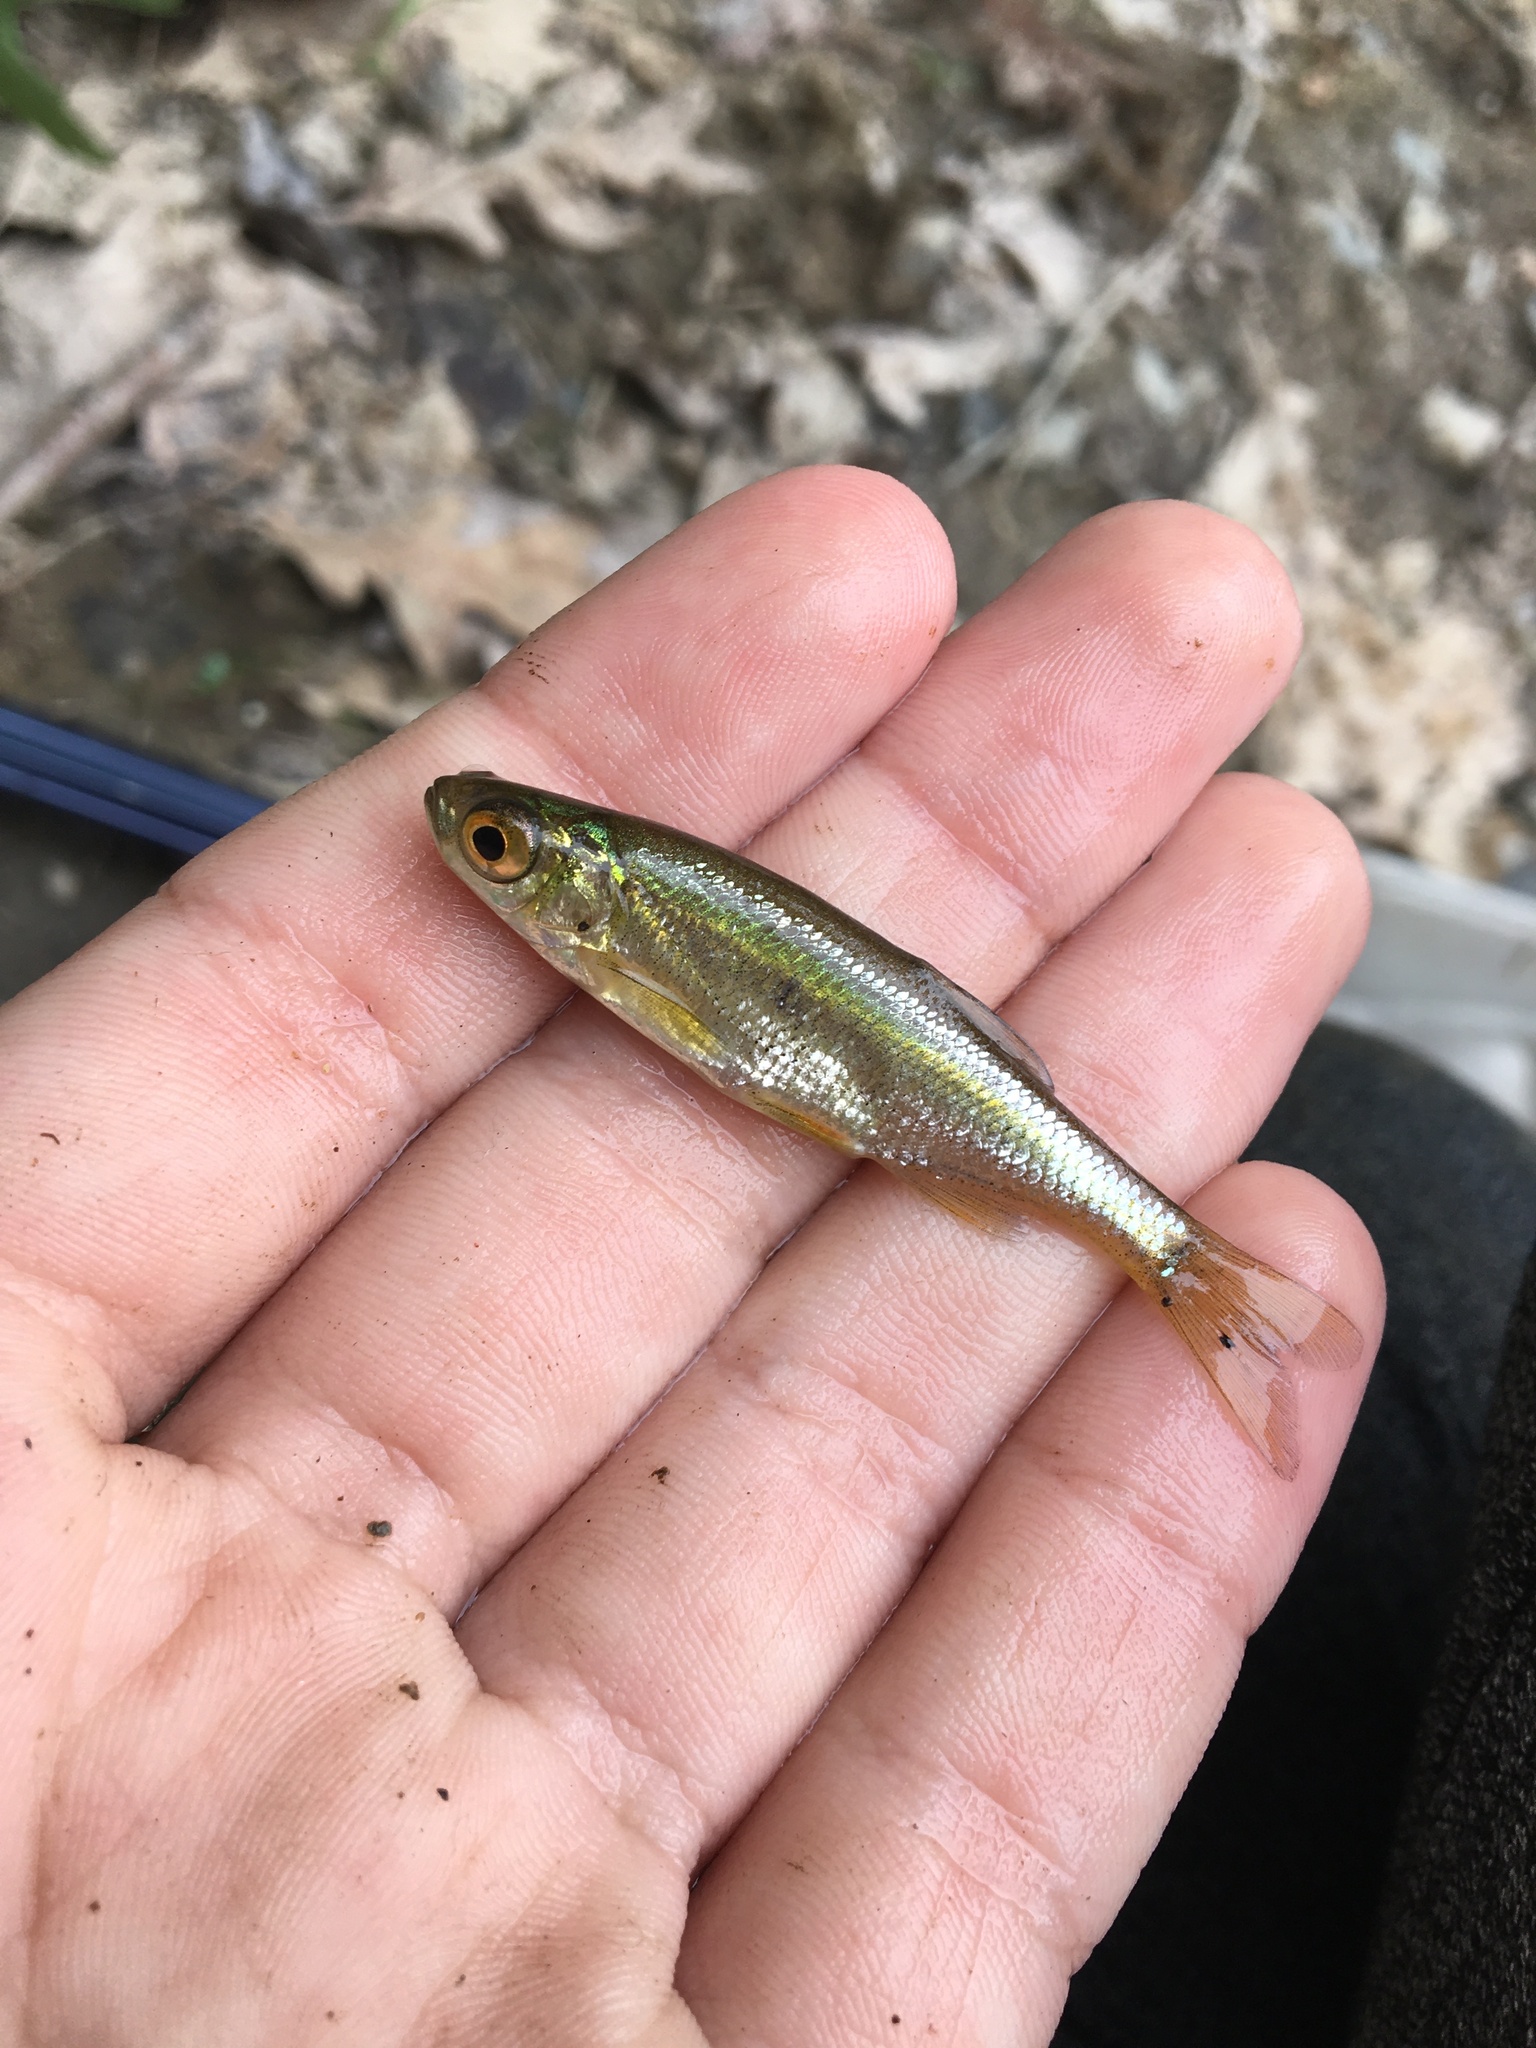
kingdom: Animalia
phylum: Chordata
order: Cypriniformes
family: Cyprinidae
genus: Notemigonus
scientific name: Notemigonus crysoleucas
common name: Golden shiner
